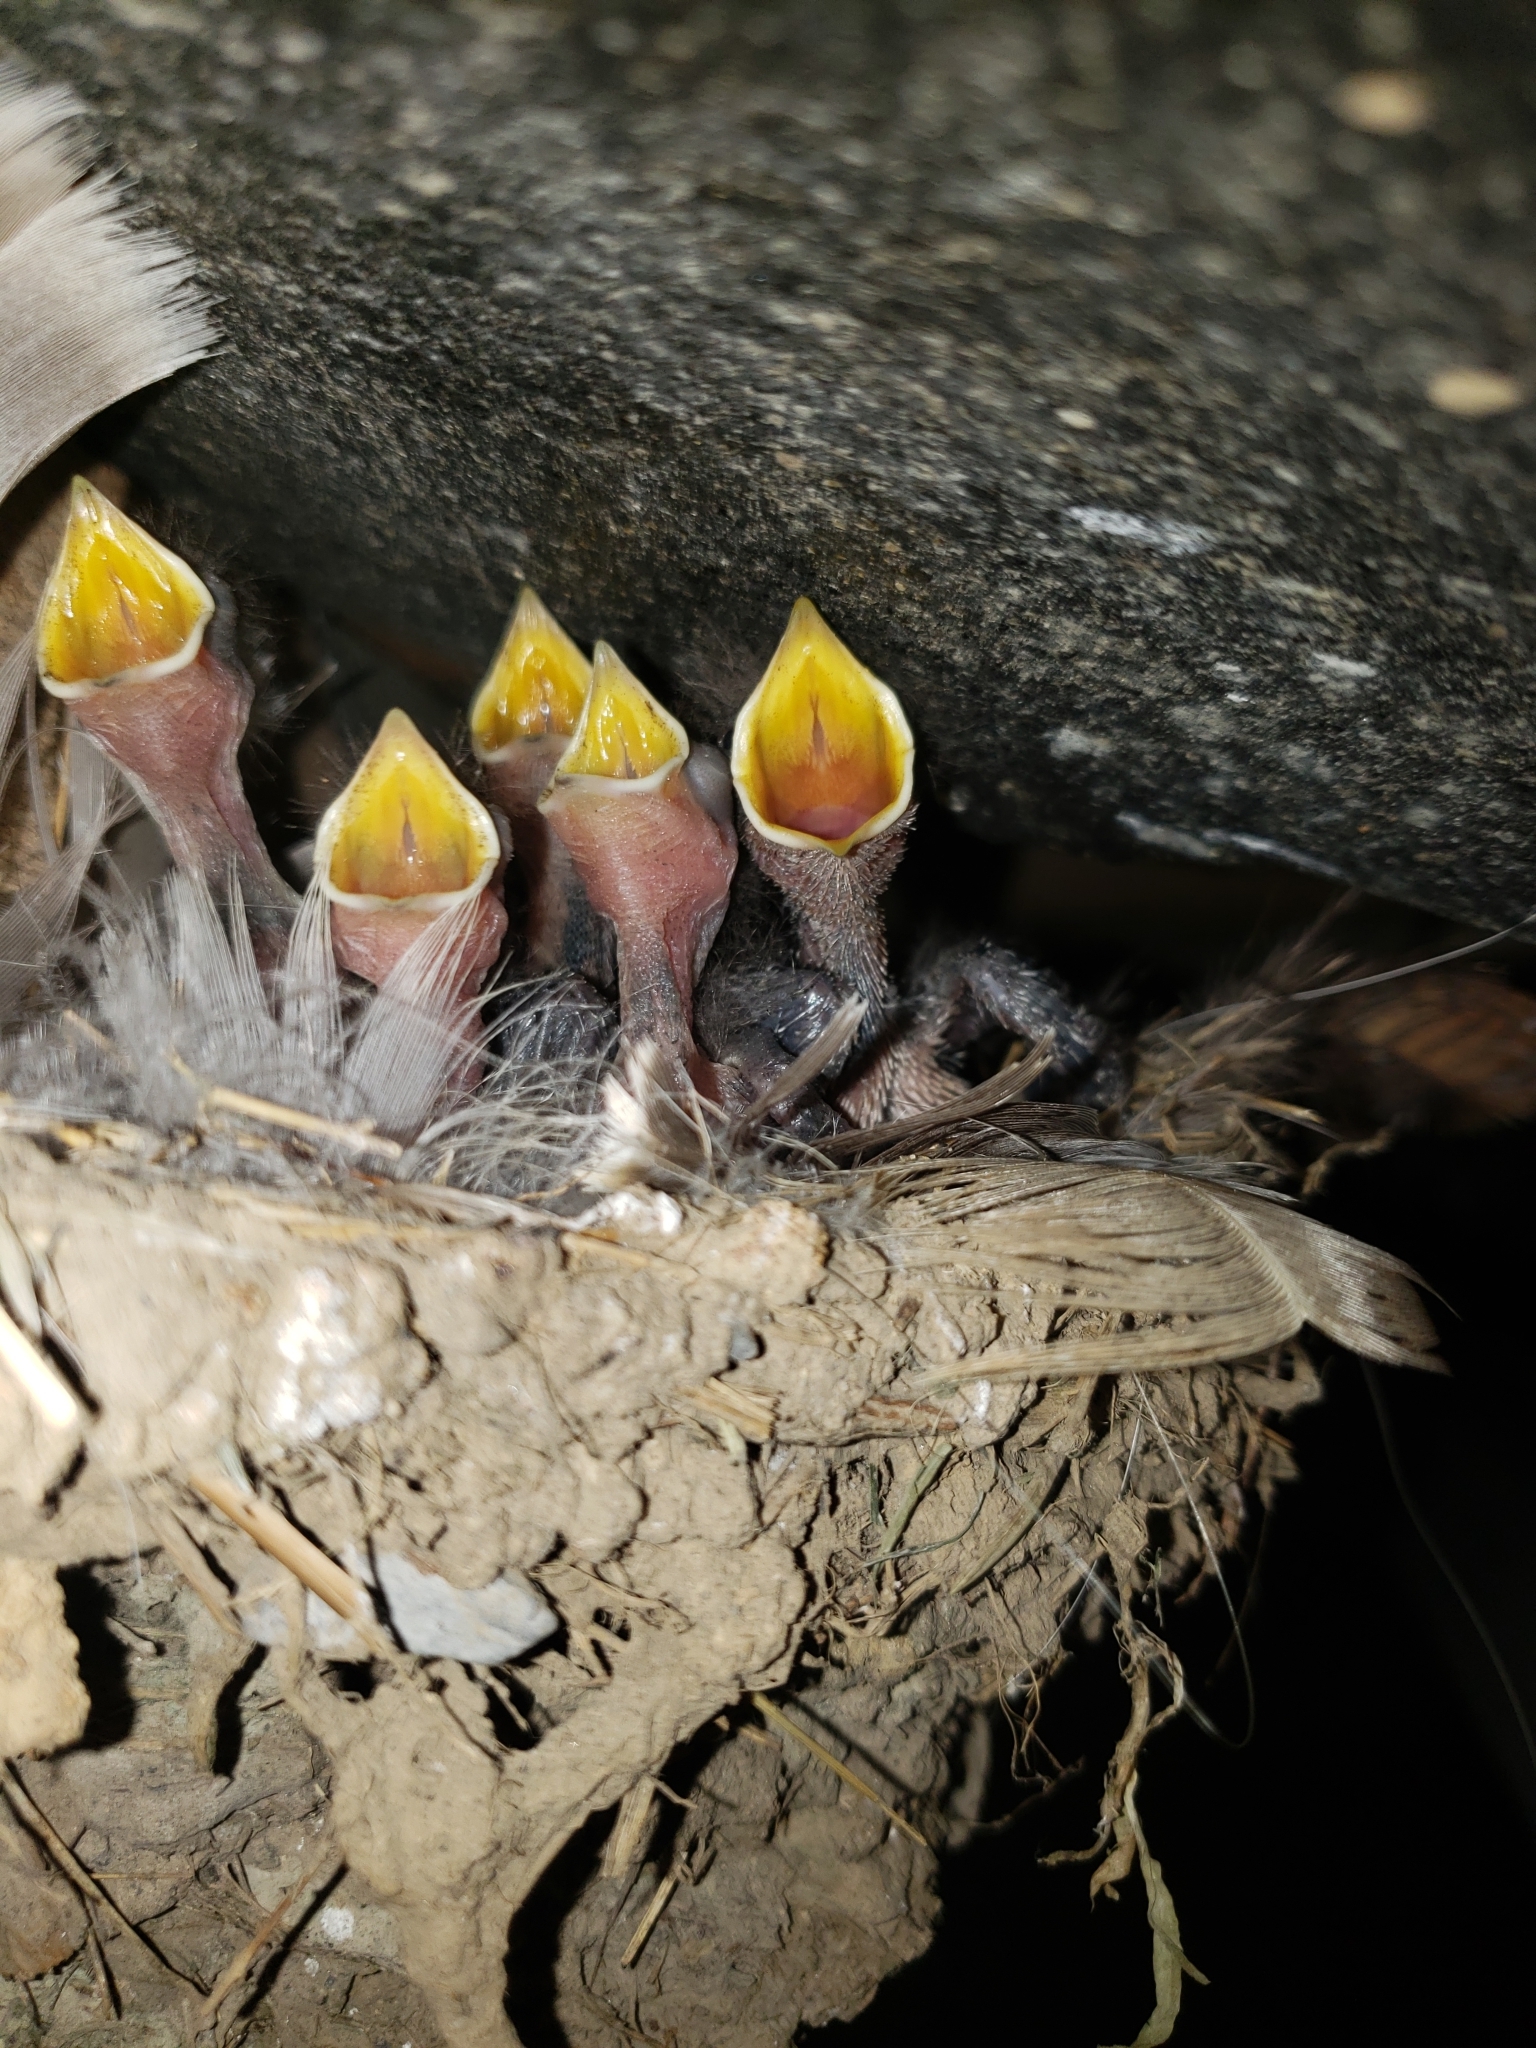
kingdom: Animalia
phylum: Chordata
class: Aves
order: Passeriformes
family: Hirundinidae
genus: Hirundo
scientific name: Hirundo rustica
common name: Barn swallow
